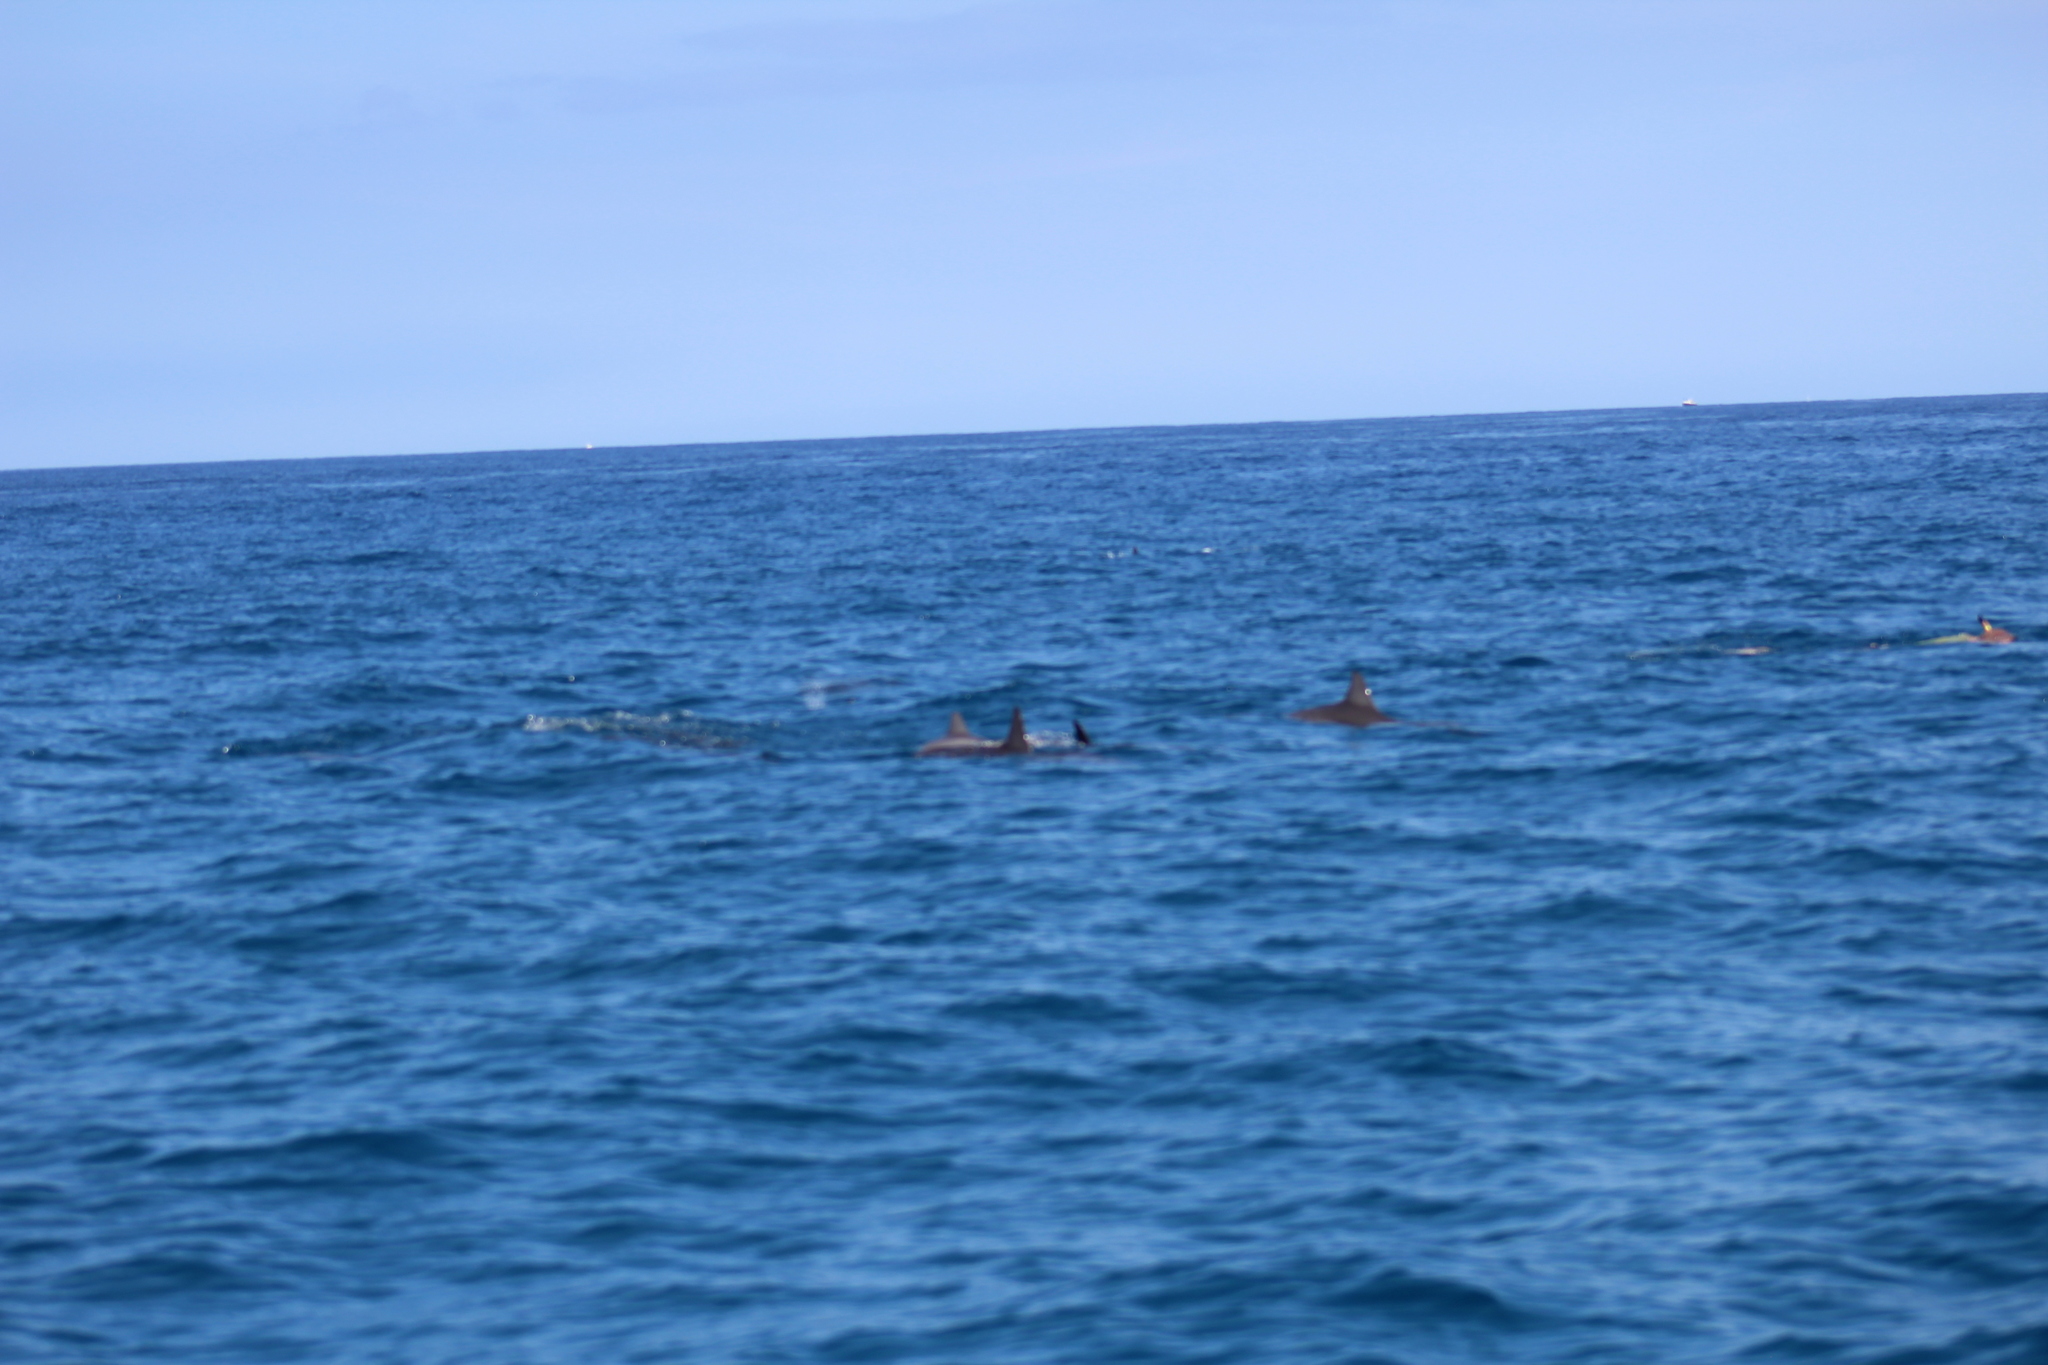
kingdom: Animalia
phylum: Chordata
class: Mammalia
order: Cetacea
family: Delphinidae
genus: Stenella
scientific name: Stenella longirostris
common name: Spinner dolphin
